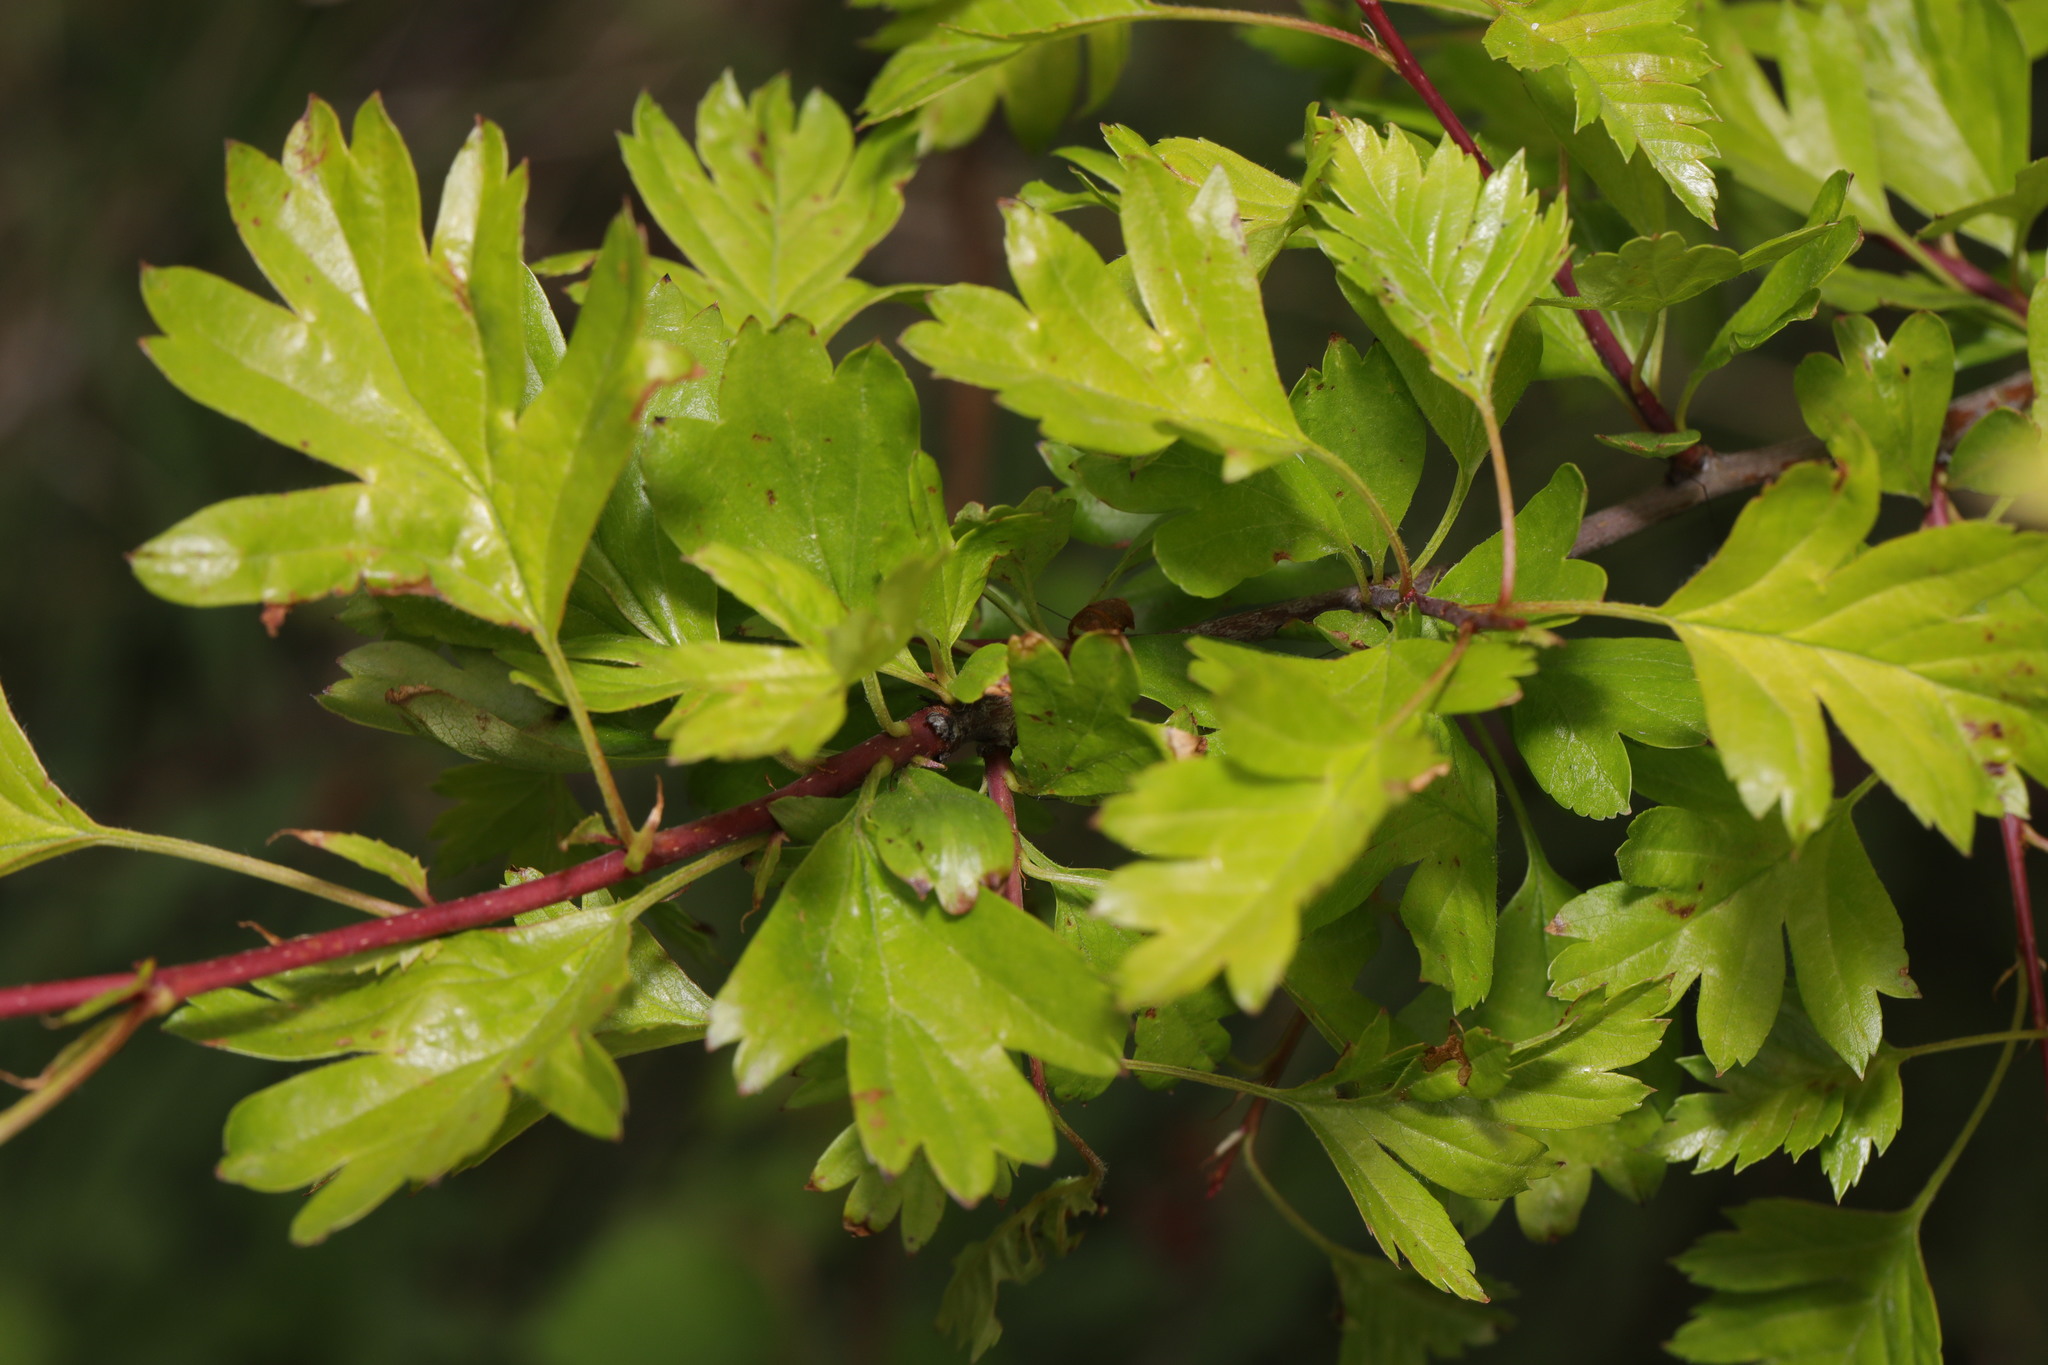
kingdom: Plantae
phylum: Tracheophyta
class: Magnoliopsida
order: Rosales
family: Rosaceae
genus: Crataegus
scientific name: Crataegus monogyna
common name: Hawthorn
